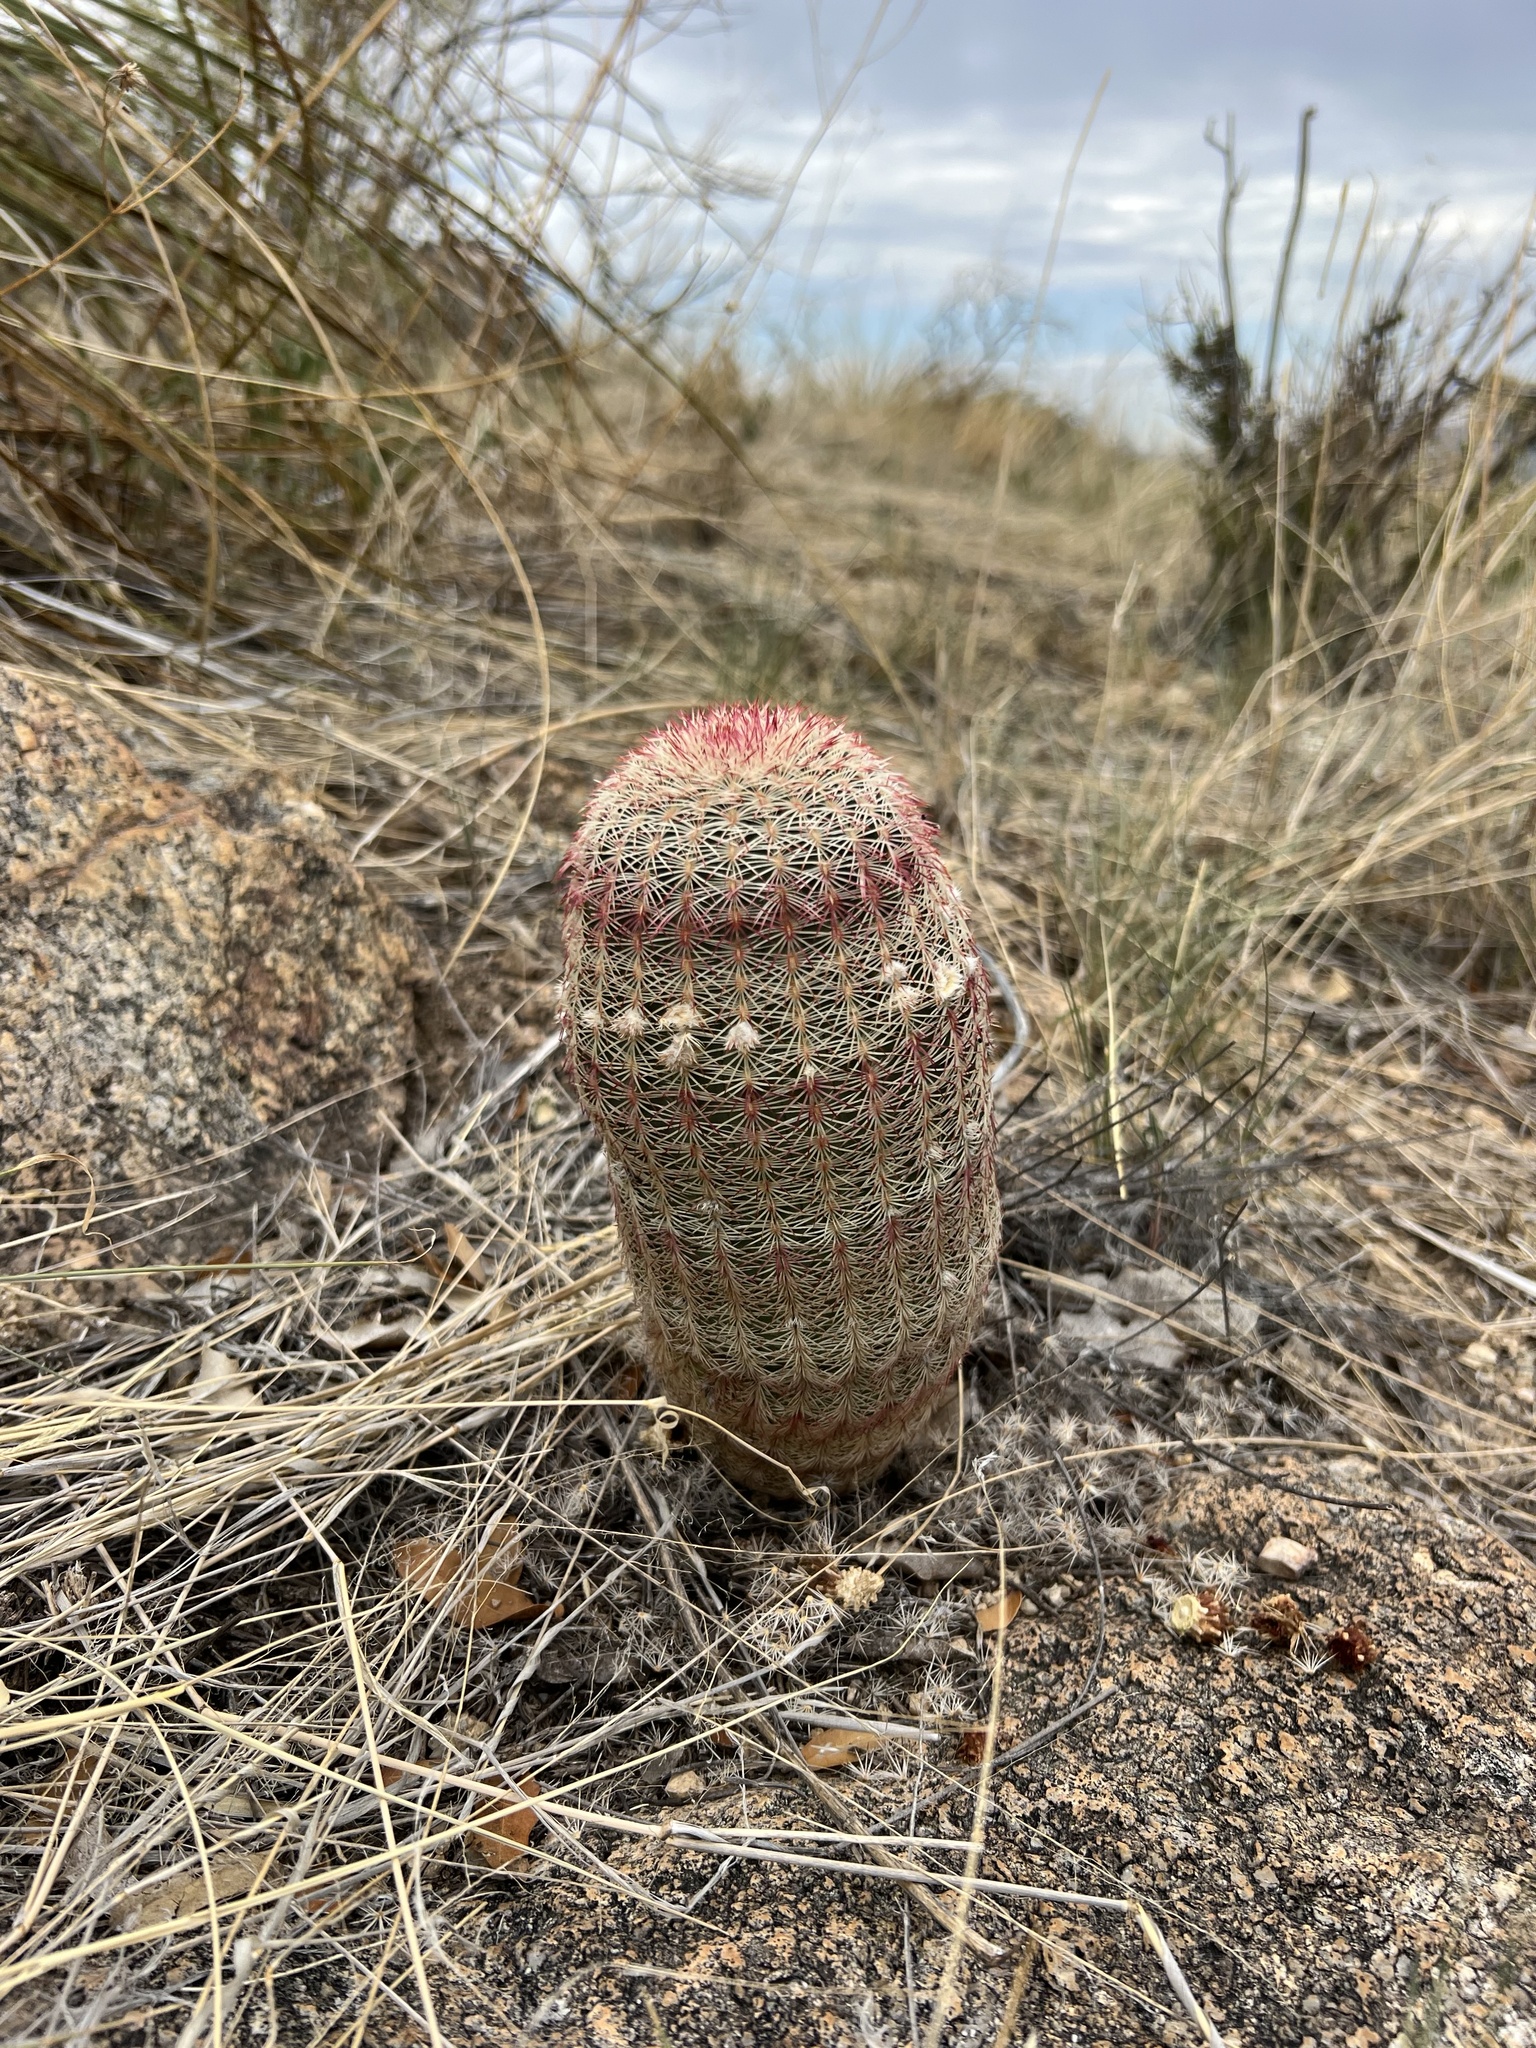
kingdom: Plantae
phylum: Tracheophyta
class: Magnoliopsida
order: Caryophyllales
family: Cactaceae
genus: Echinocereus
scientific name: Echinocereus rigidissimus
